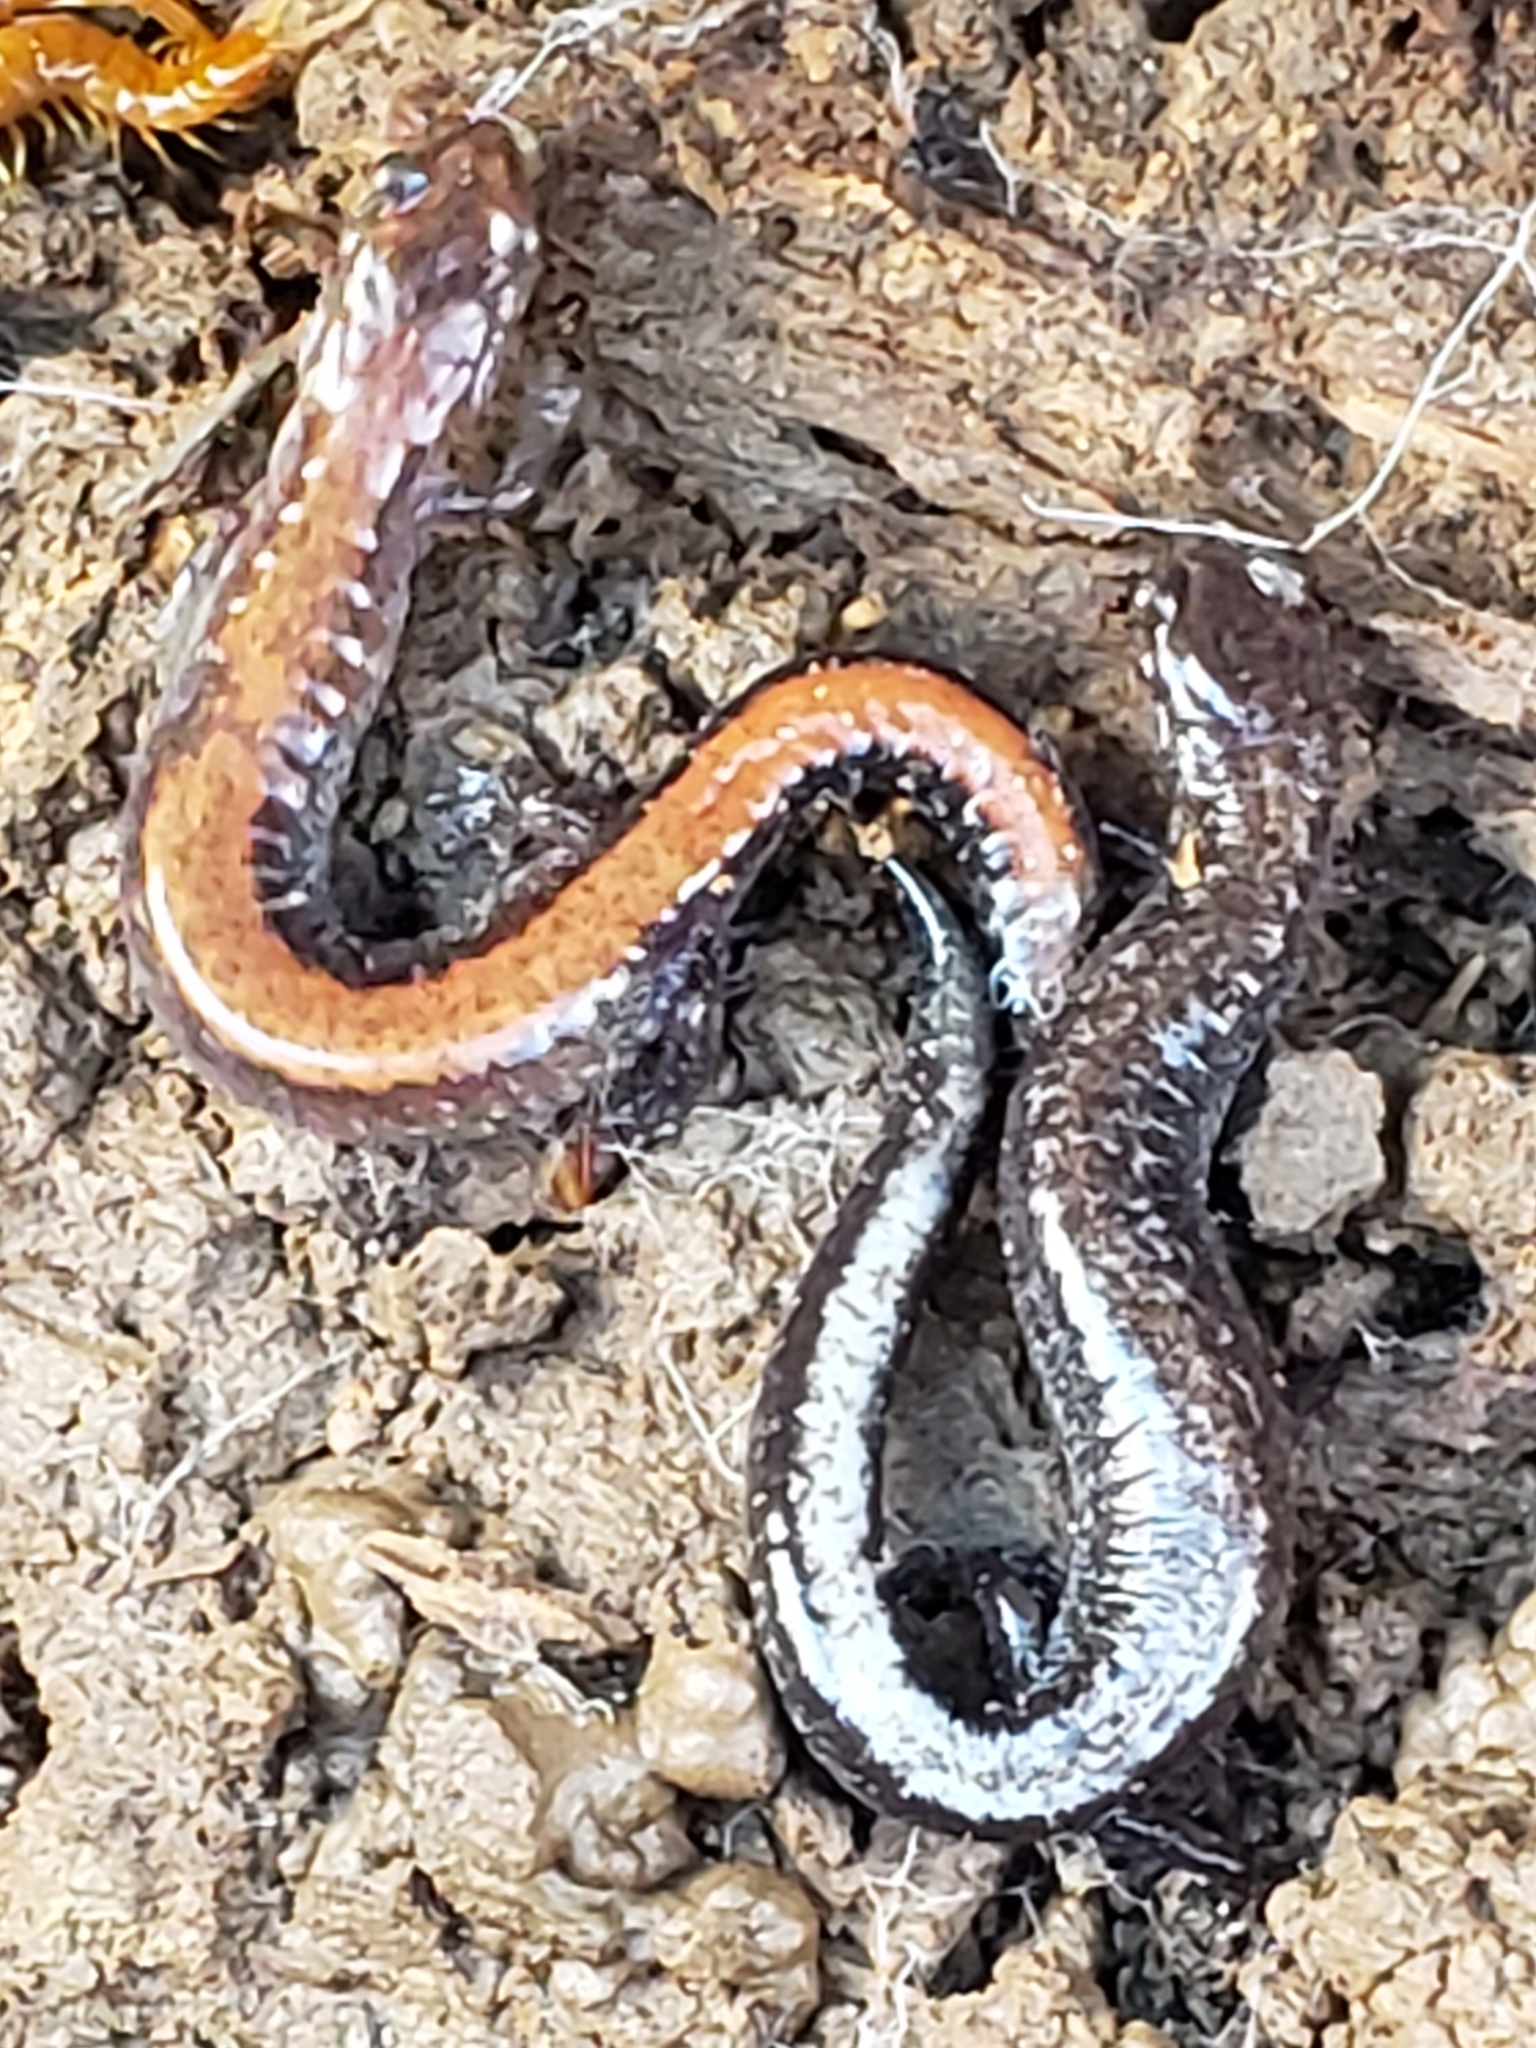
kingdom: Animalia
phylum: Chordata
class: Amphibia
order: Caudata
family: Plethodontidae
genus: Plethodon
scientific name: Plethodon cinereus
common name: Redback salamander
